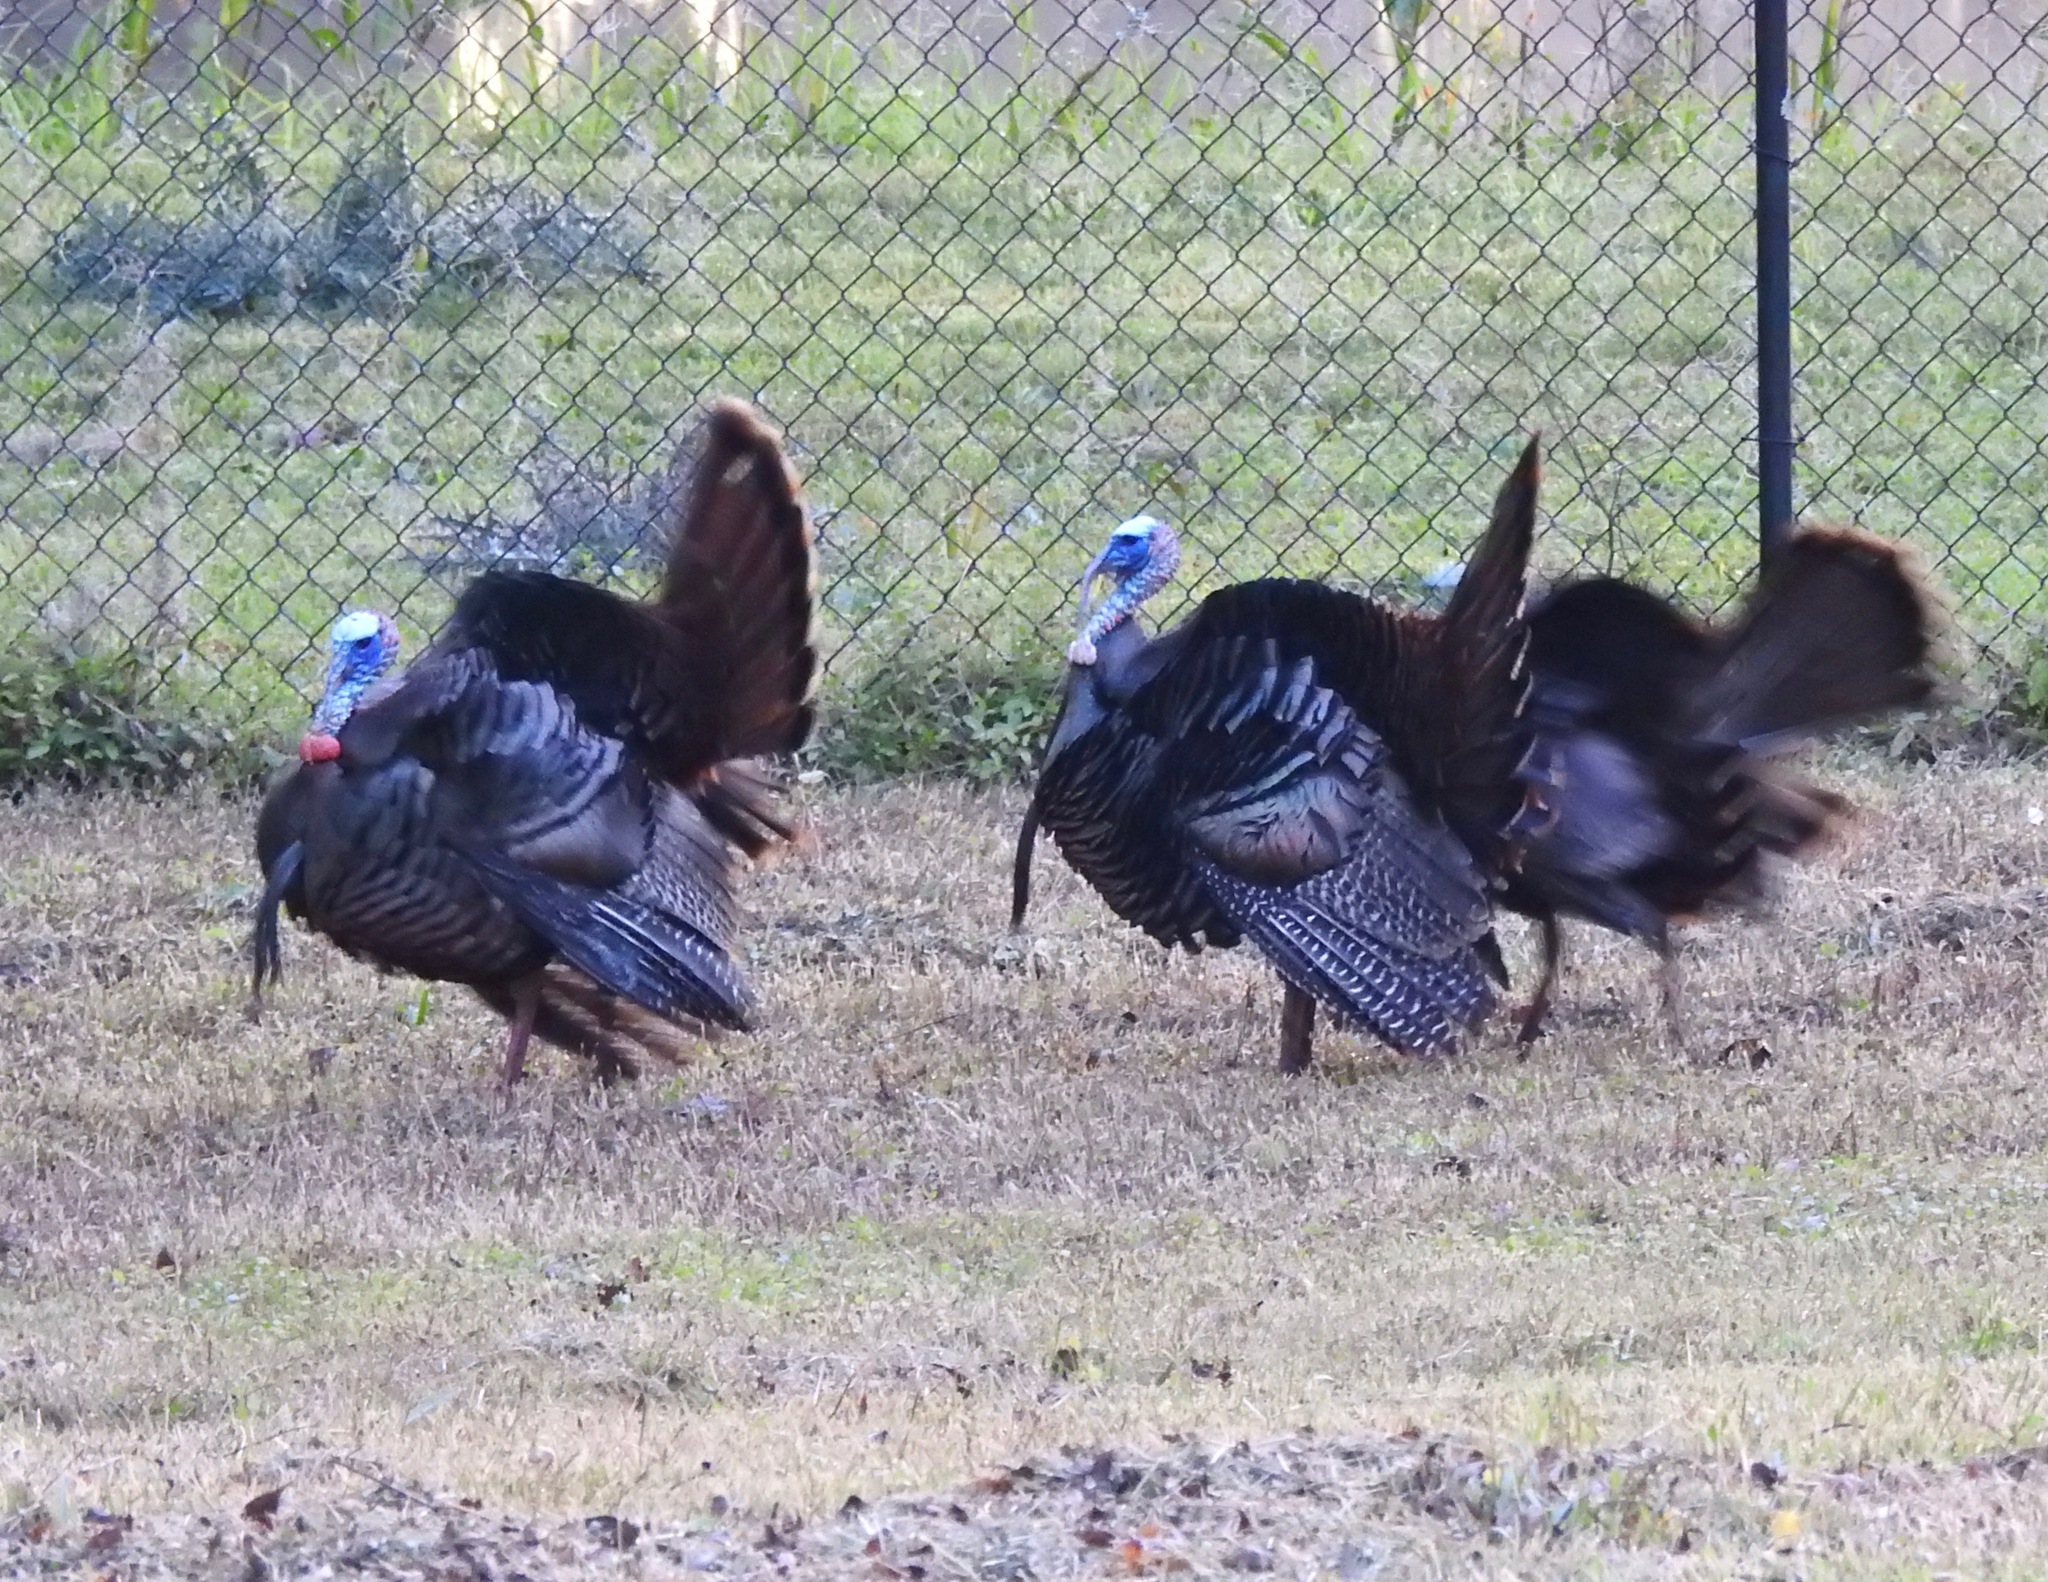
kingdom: Animalia
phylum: Chordata
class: Aves
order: Galliformes
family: Phasianidae
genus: Meleagris
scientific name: Meleagris gallopavo
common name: Wild turkey
